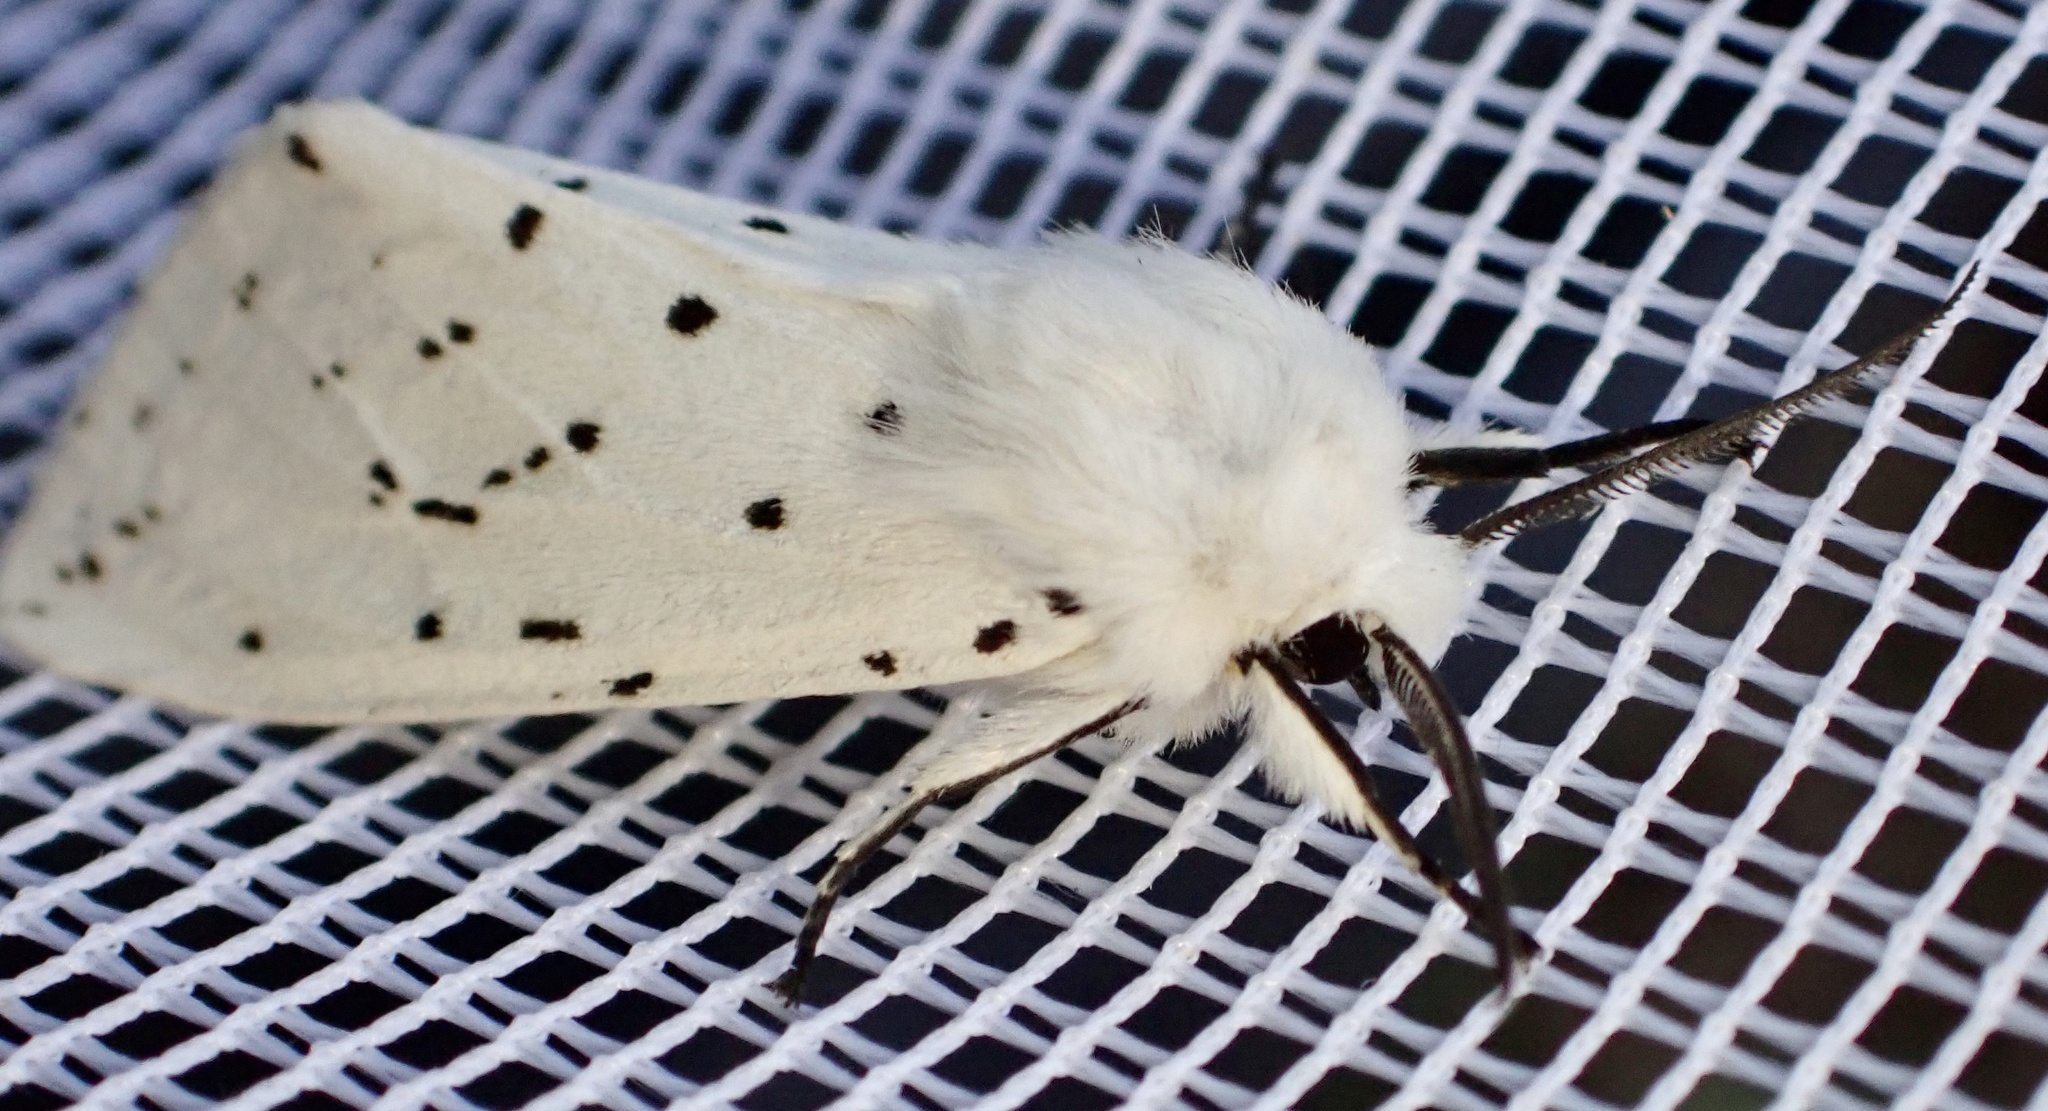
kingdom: Animalia
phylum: Arthropoda
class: Insecta
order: Lepidoptera
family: Erebidae
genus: Spilosoma
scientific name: Spilosoma lubricipeda
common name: White ermine
